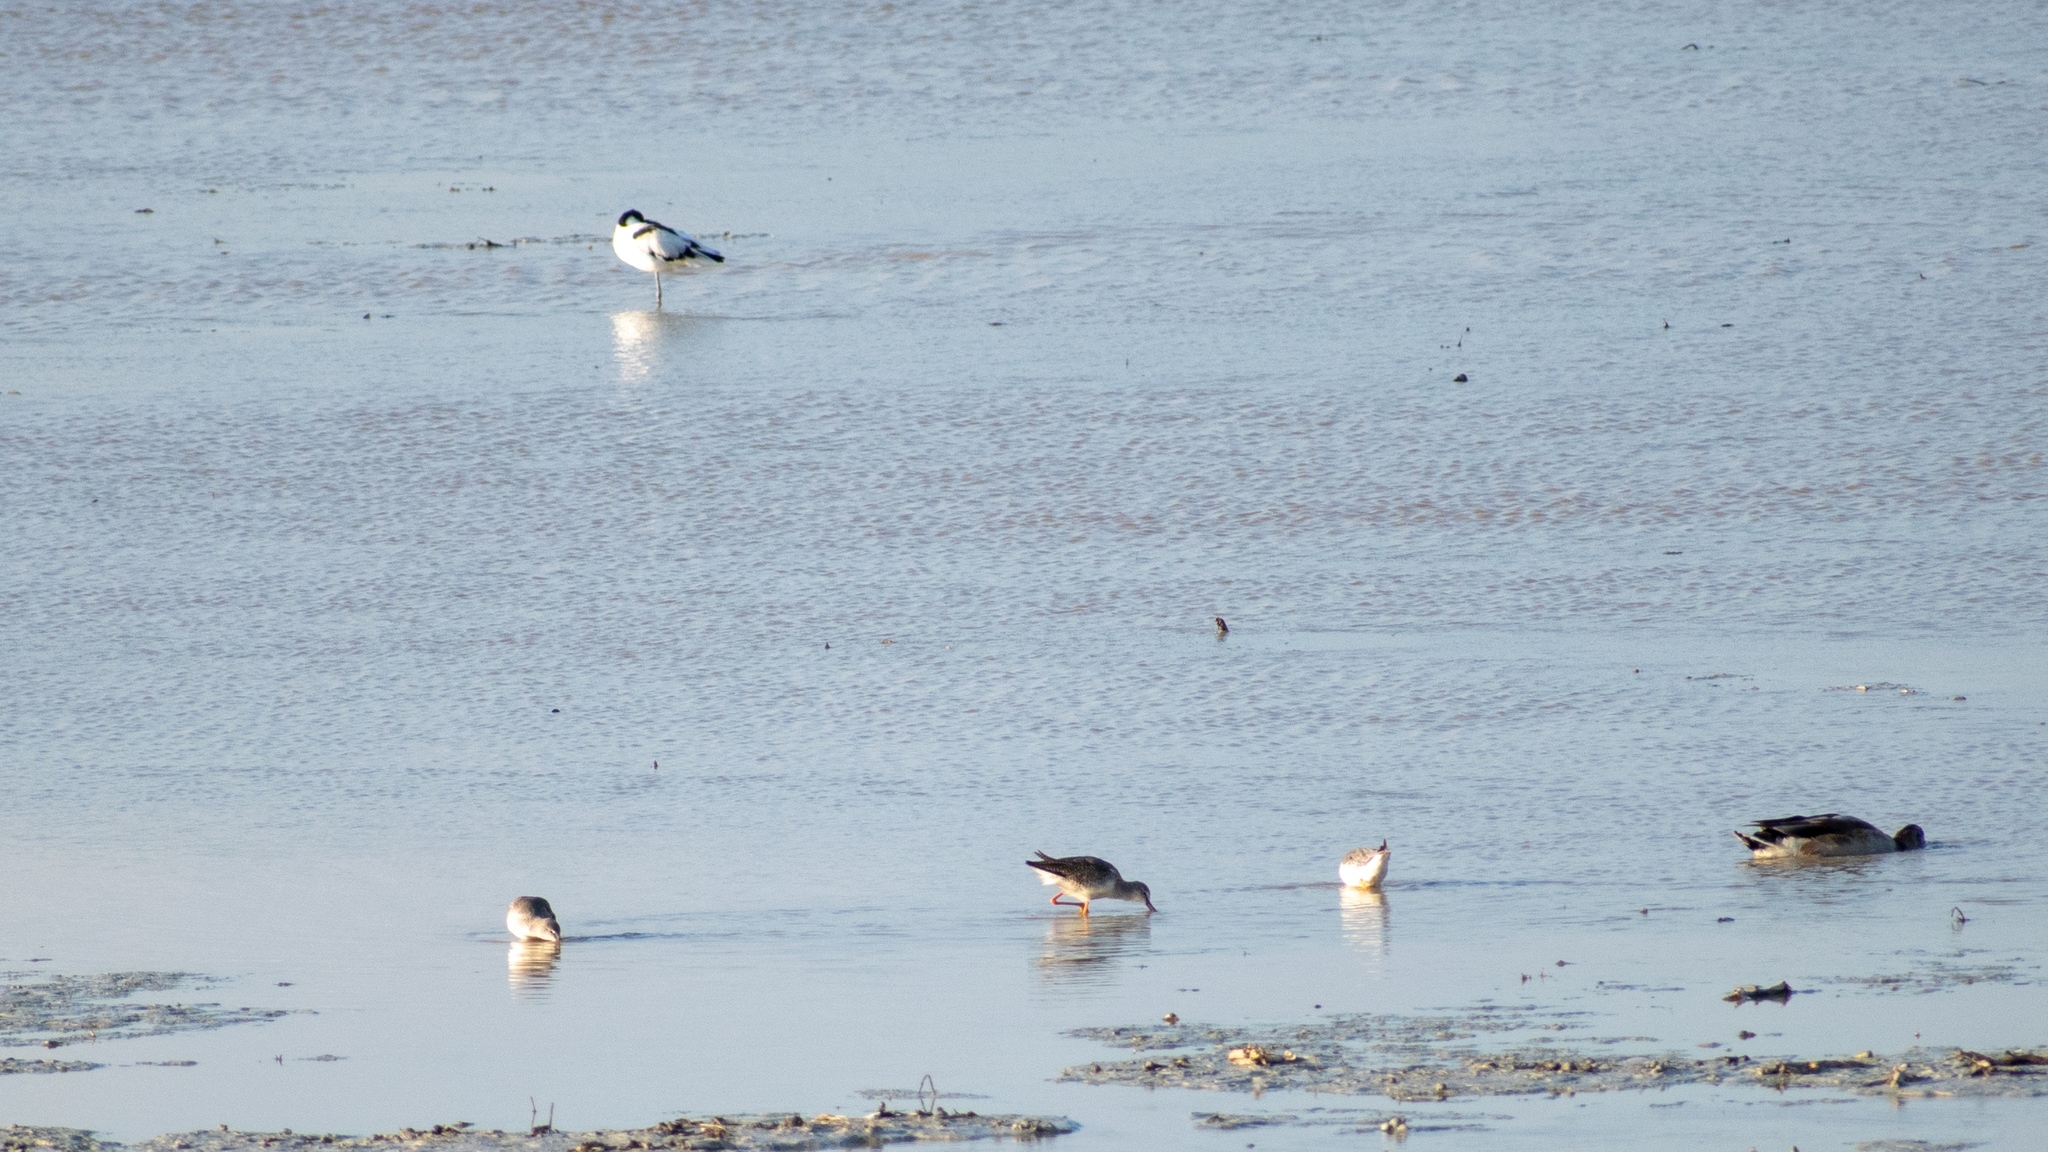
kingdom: Animalia
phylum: Chordata
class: Aves
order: Charadriiformes
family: Recurvirostridae
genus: Recurvirostra
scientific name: Recurvirostra avosetta
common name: Pied avocet
